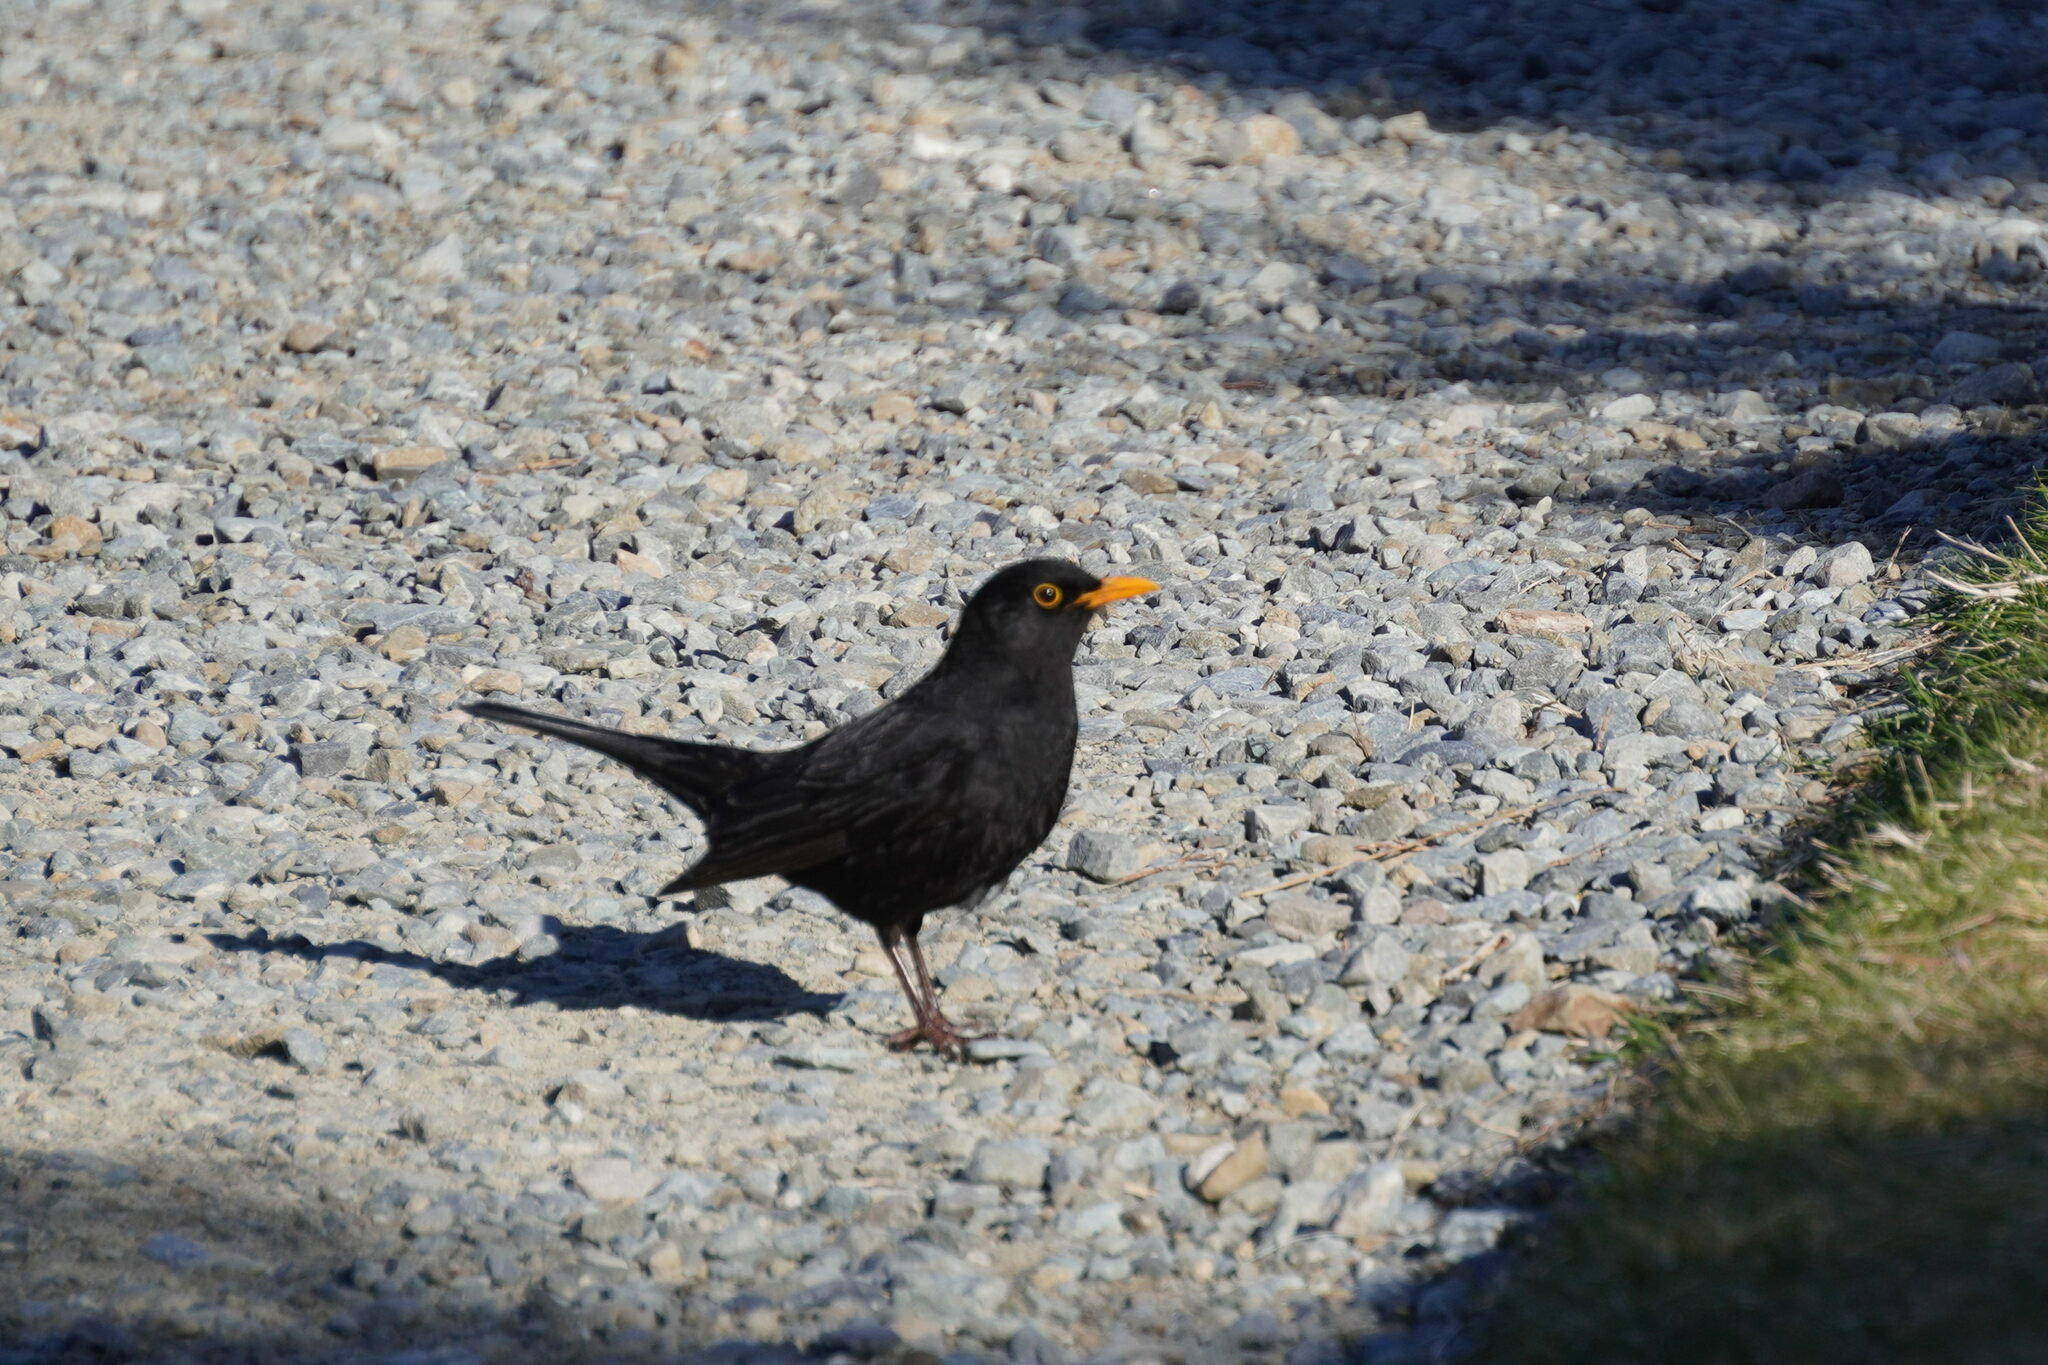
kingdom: Animalia
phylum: Chordata
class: Aves
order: Passeriformes
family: Turdidae
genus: Turdus
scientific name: Turdus merula
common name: Common blackbird
